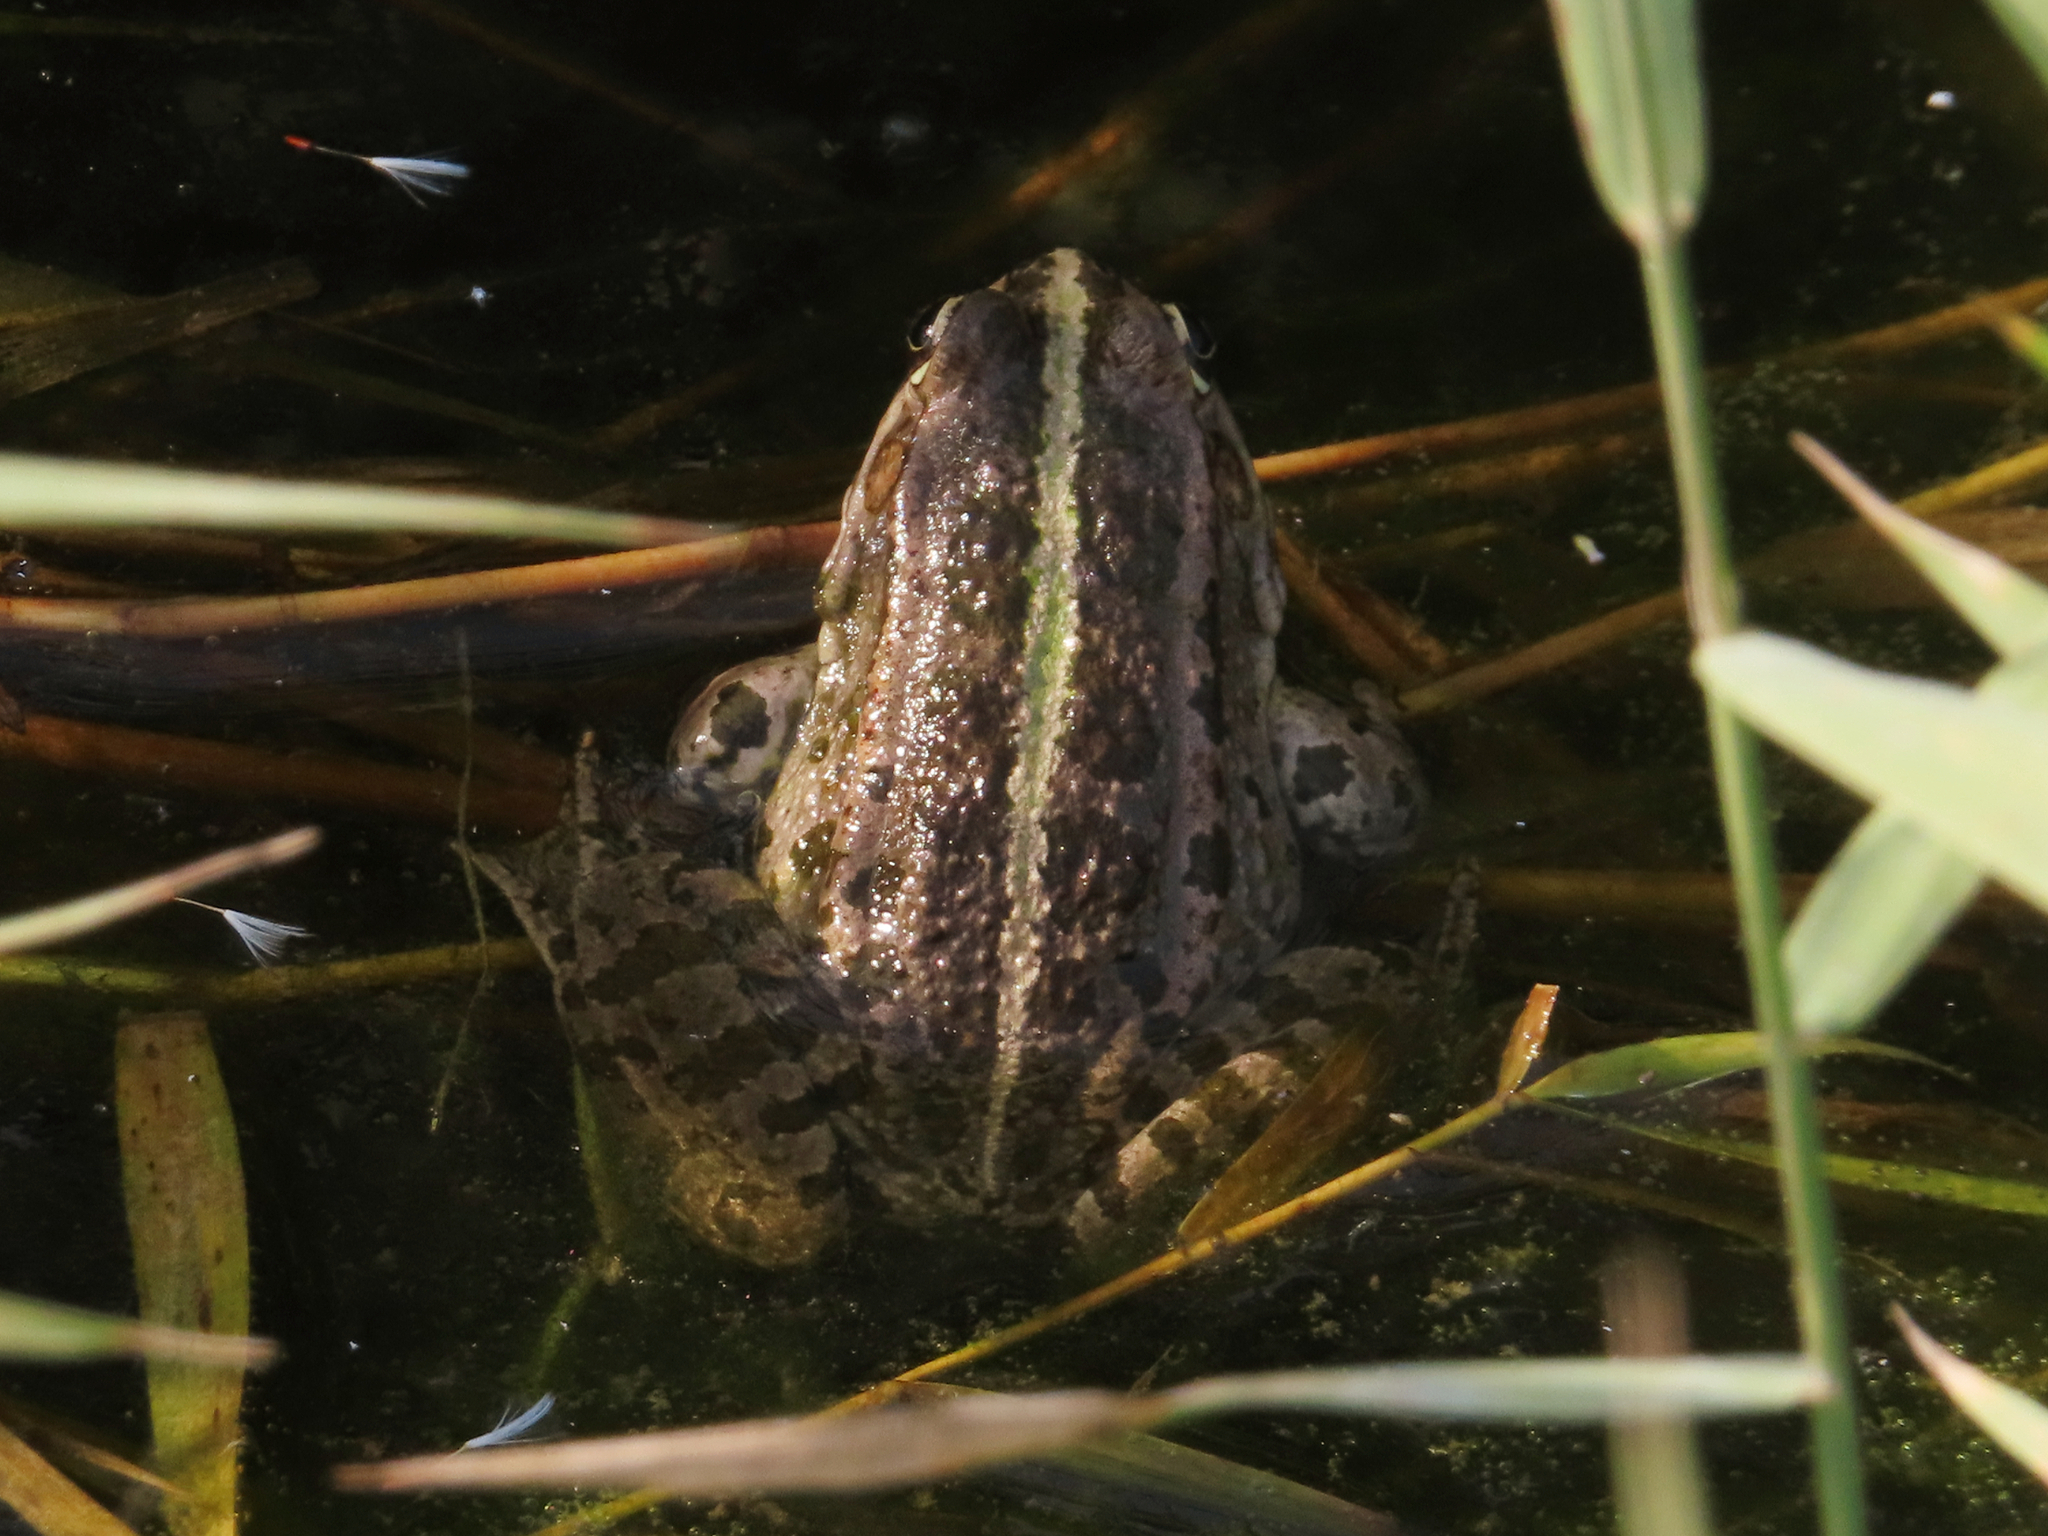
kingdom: Animalia
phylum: Chordata
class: Amphibia
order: Anura
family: Ranidae
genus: Pelophylax
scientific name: Pelophylax ridibundus
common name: Marsh frog
